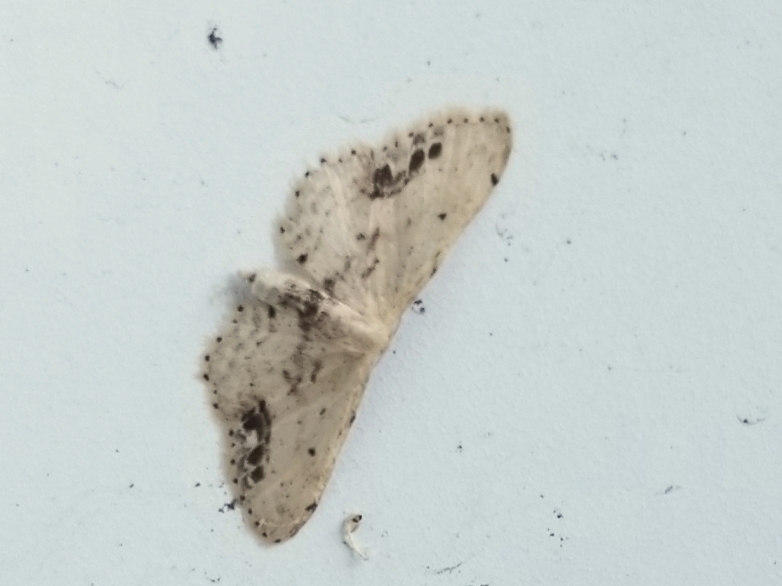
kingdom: Animalia
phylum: Arthropoda
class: Insecta
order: Lepidoptera
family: Geometridae
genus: Idaea
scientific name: Idaea dimidiata
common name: Single-dotted wave
